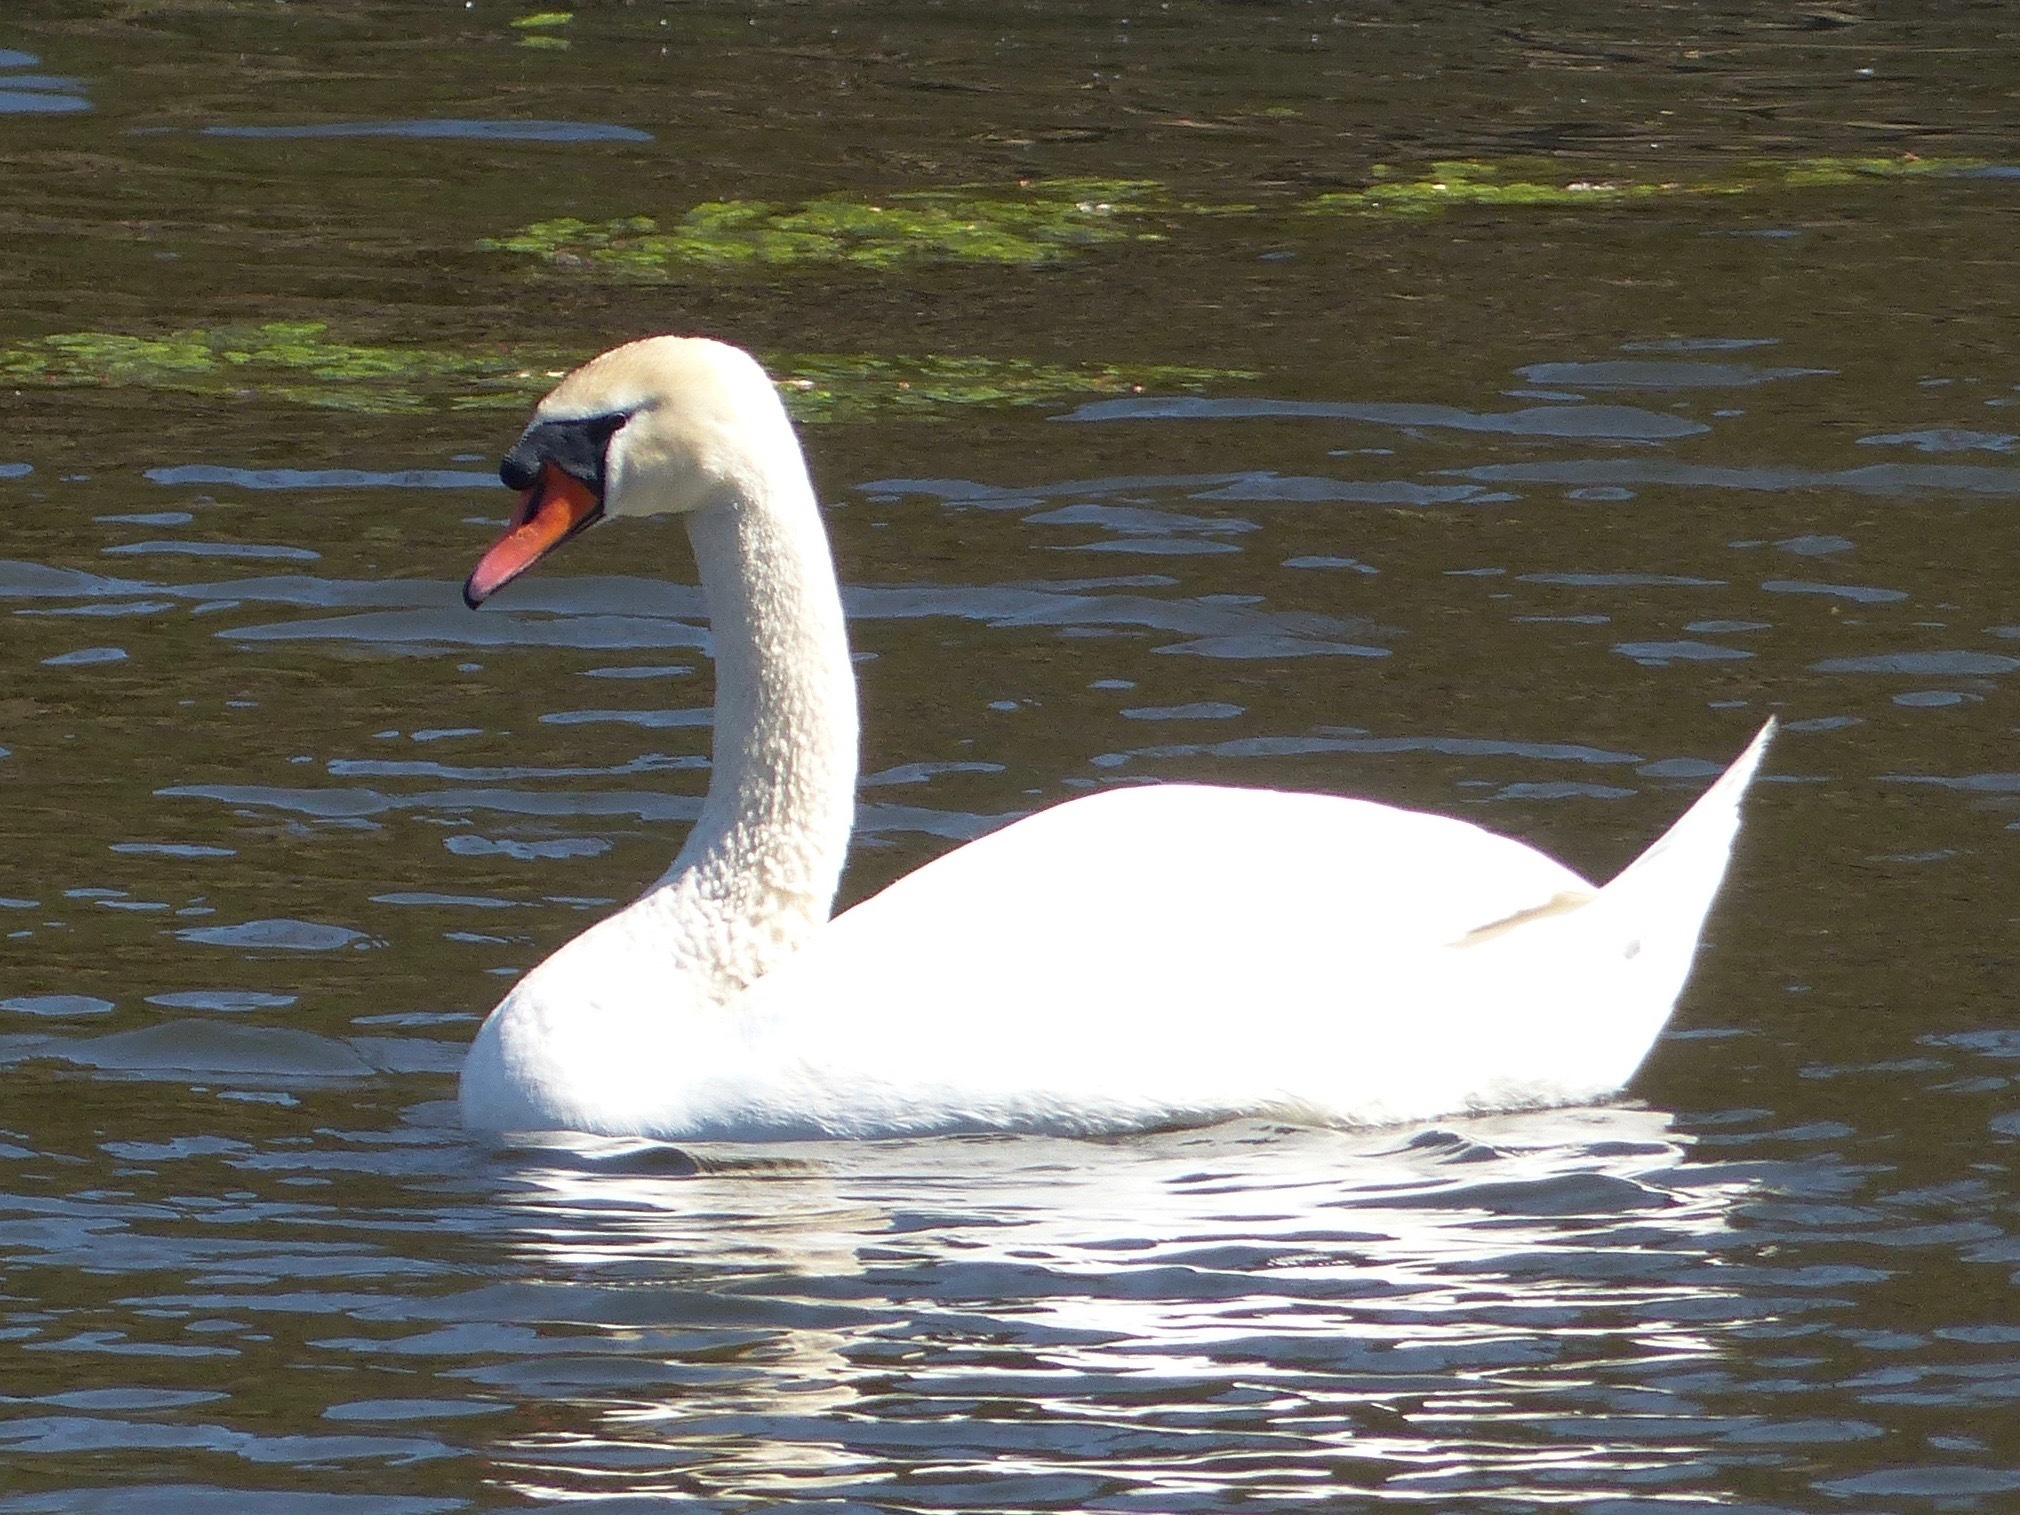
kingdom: Animalia
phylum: Chordata
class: Aves
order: Anseriformes
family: Anatidae
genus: Cygnus
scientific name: Cygnus olor
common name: Mute swan
